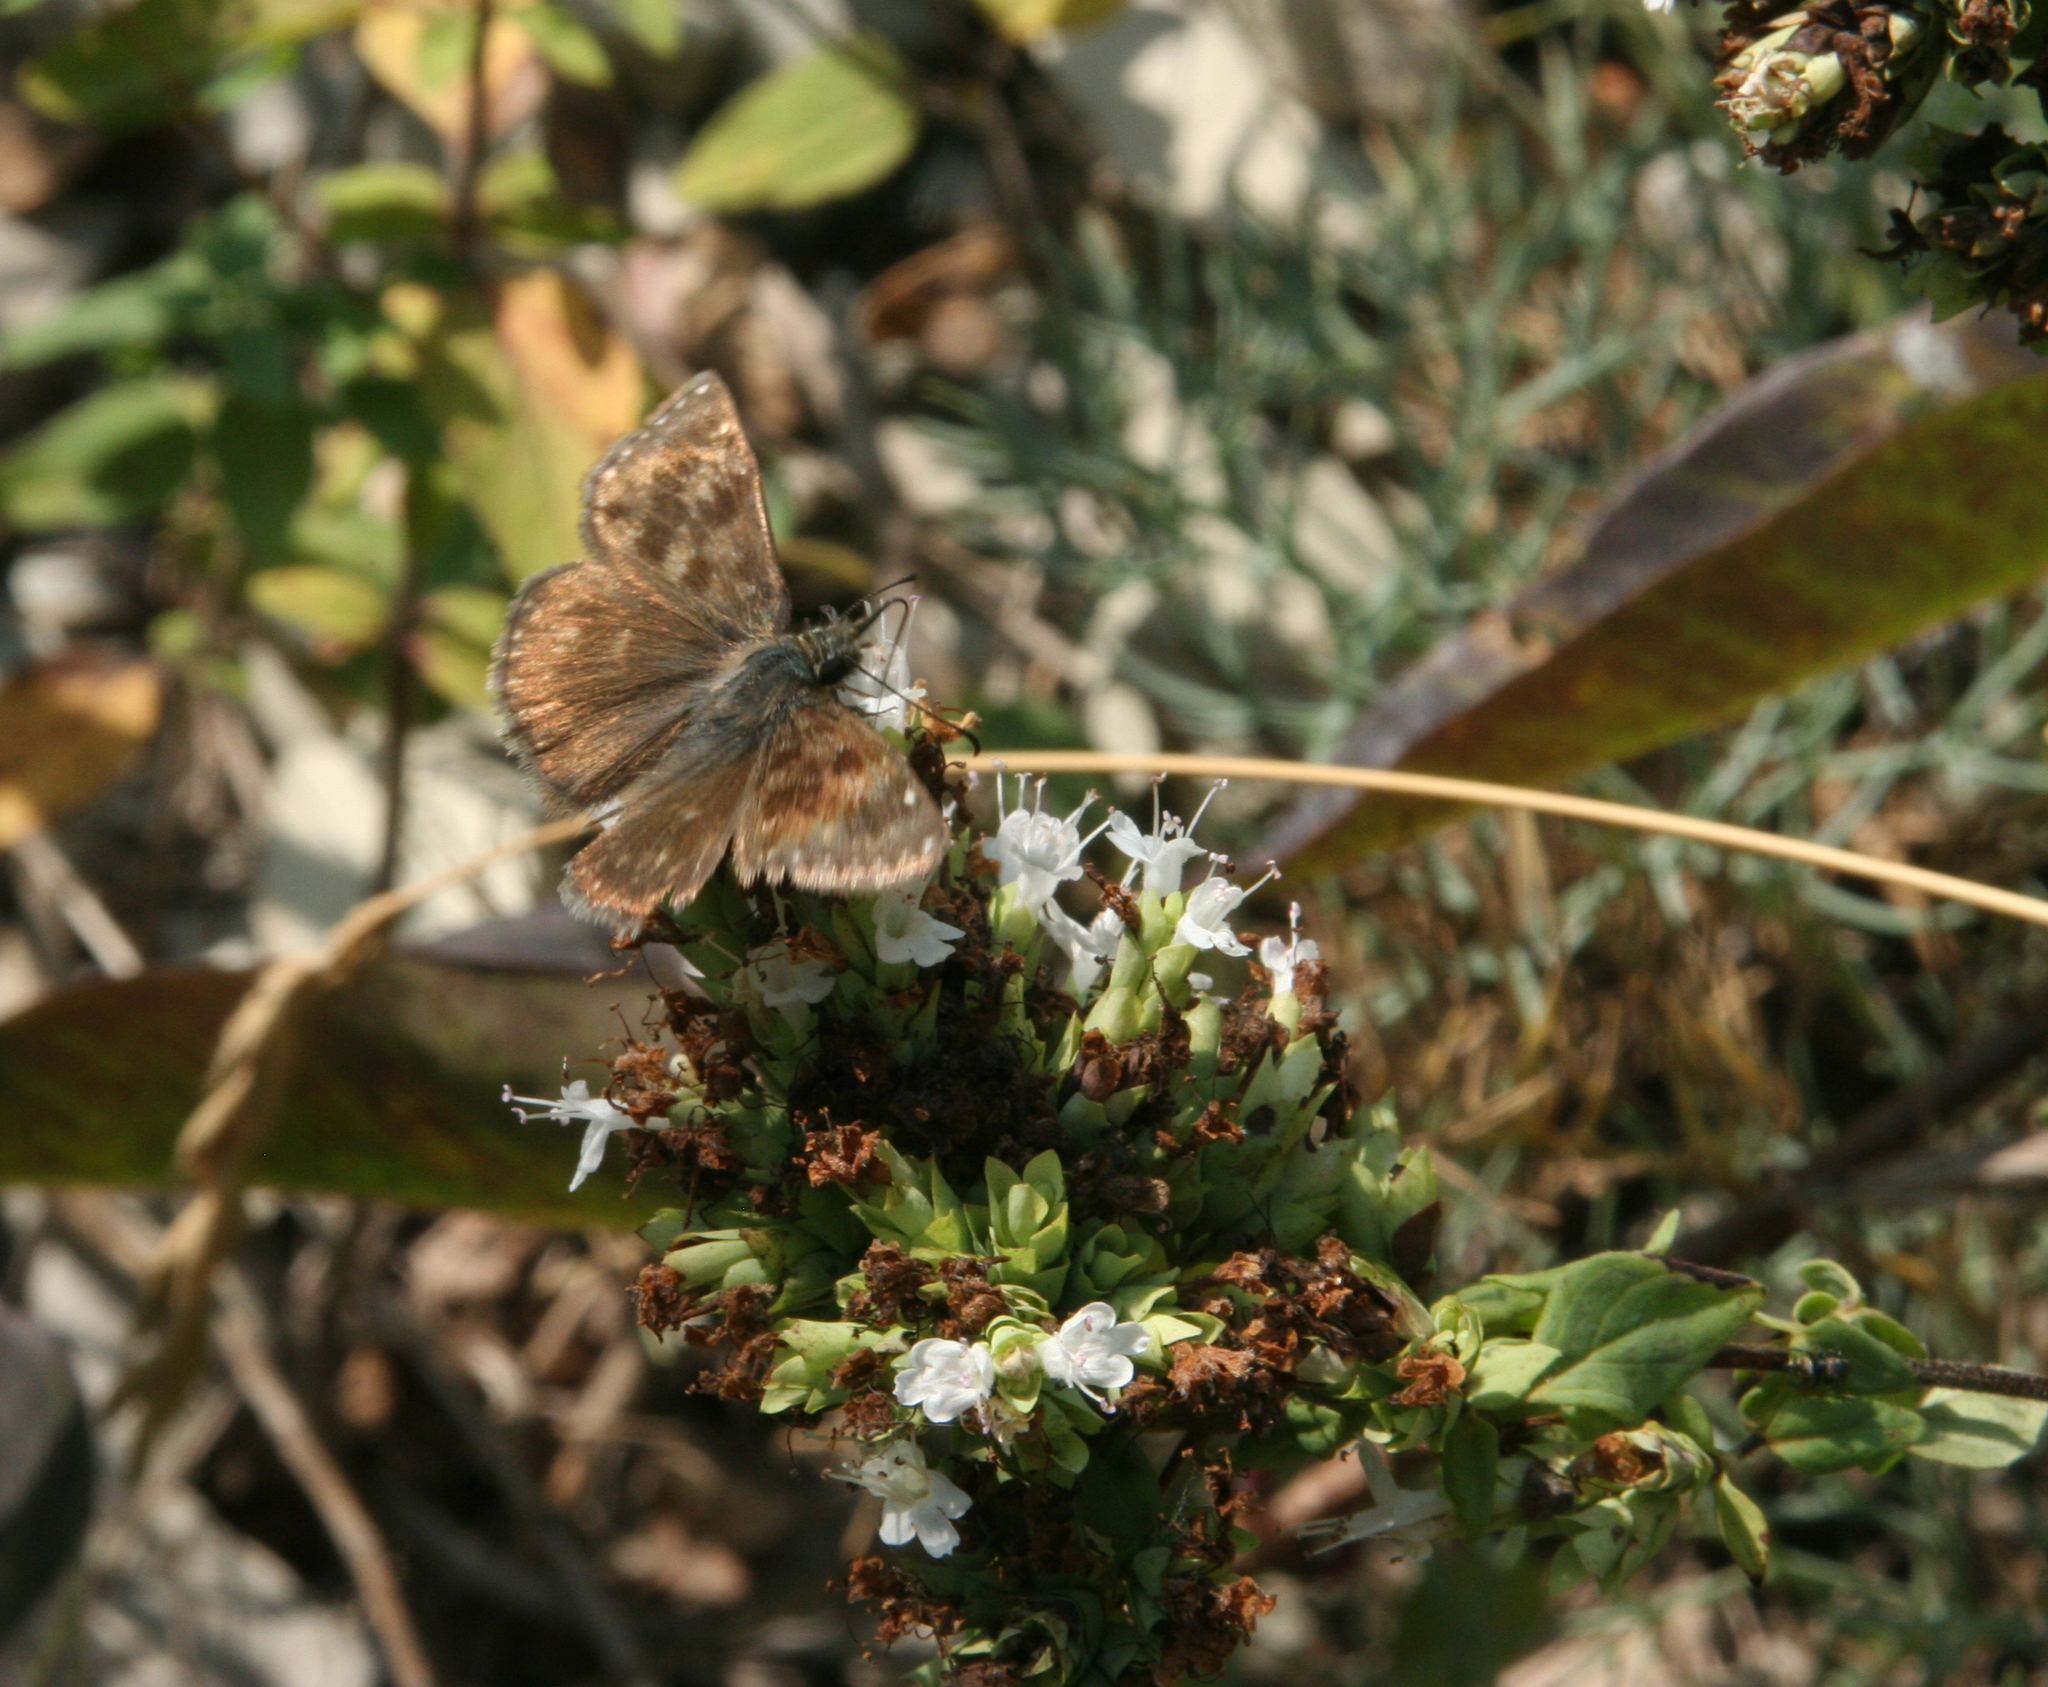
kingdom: Animalia
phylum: Arthropoda
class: Insecta
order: Lepidoptera
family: Hesperiidae
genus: Erynnis
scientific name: Erynnis tages
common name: Dingy skipper
